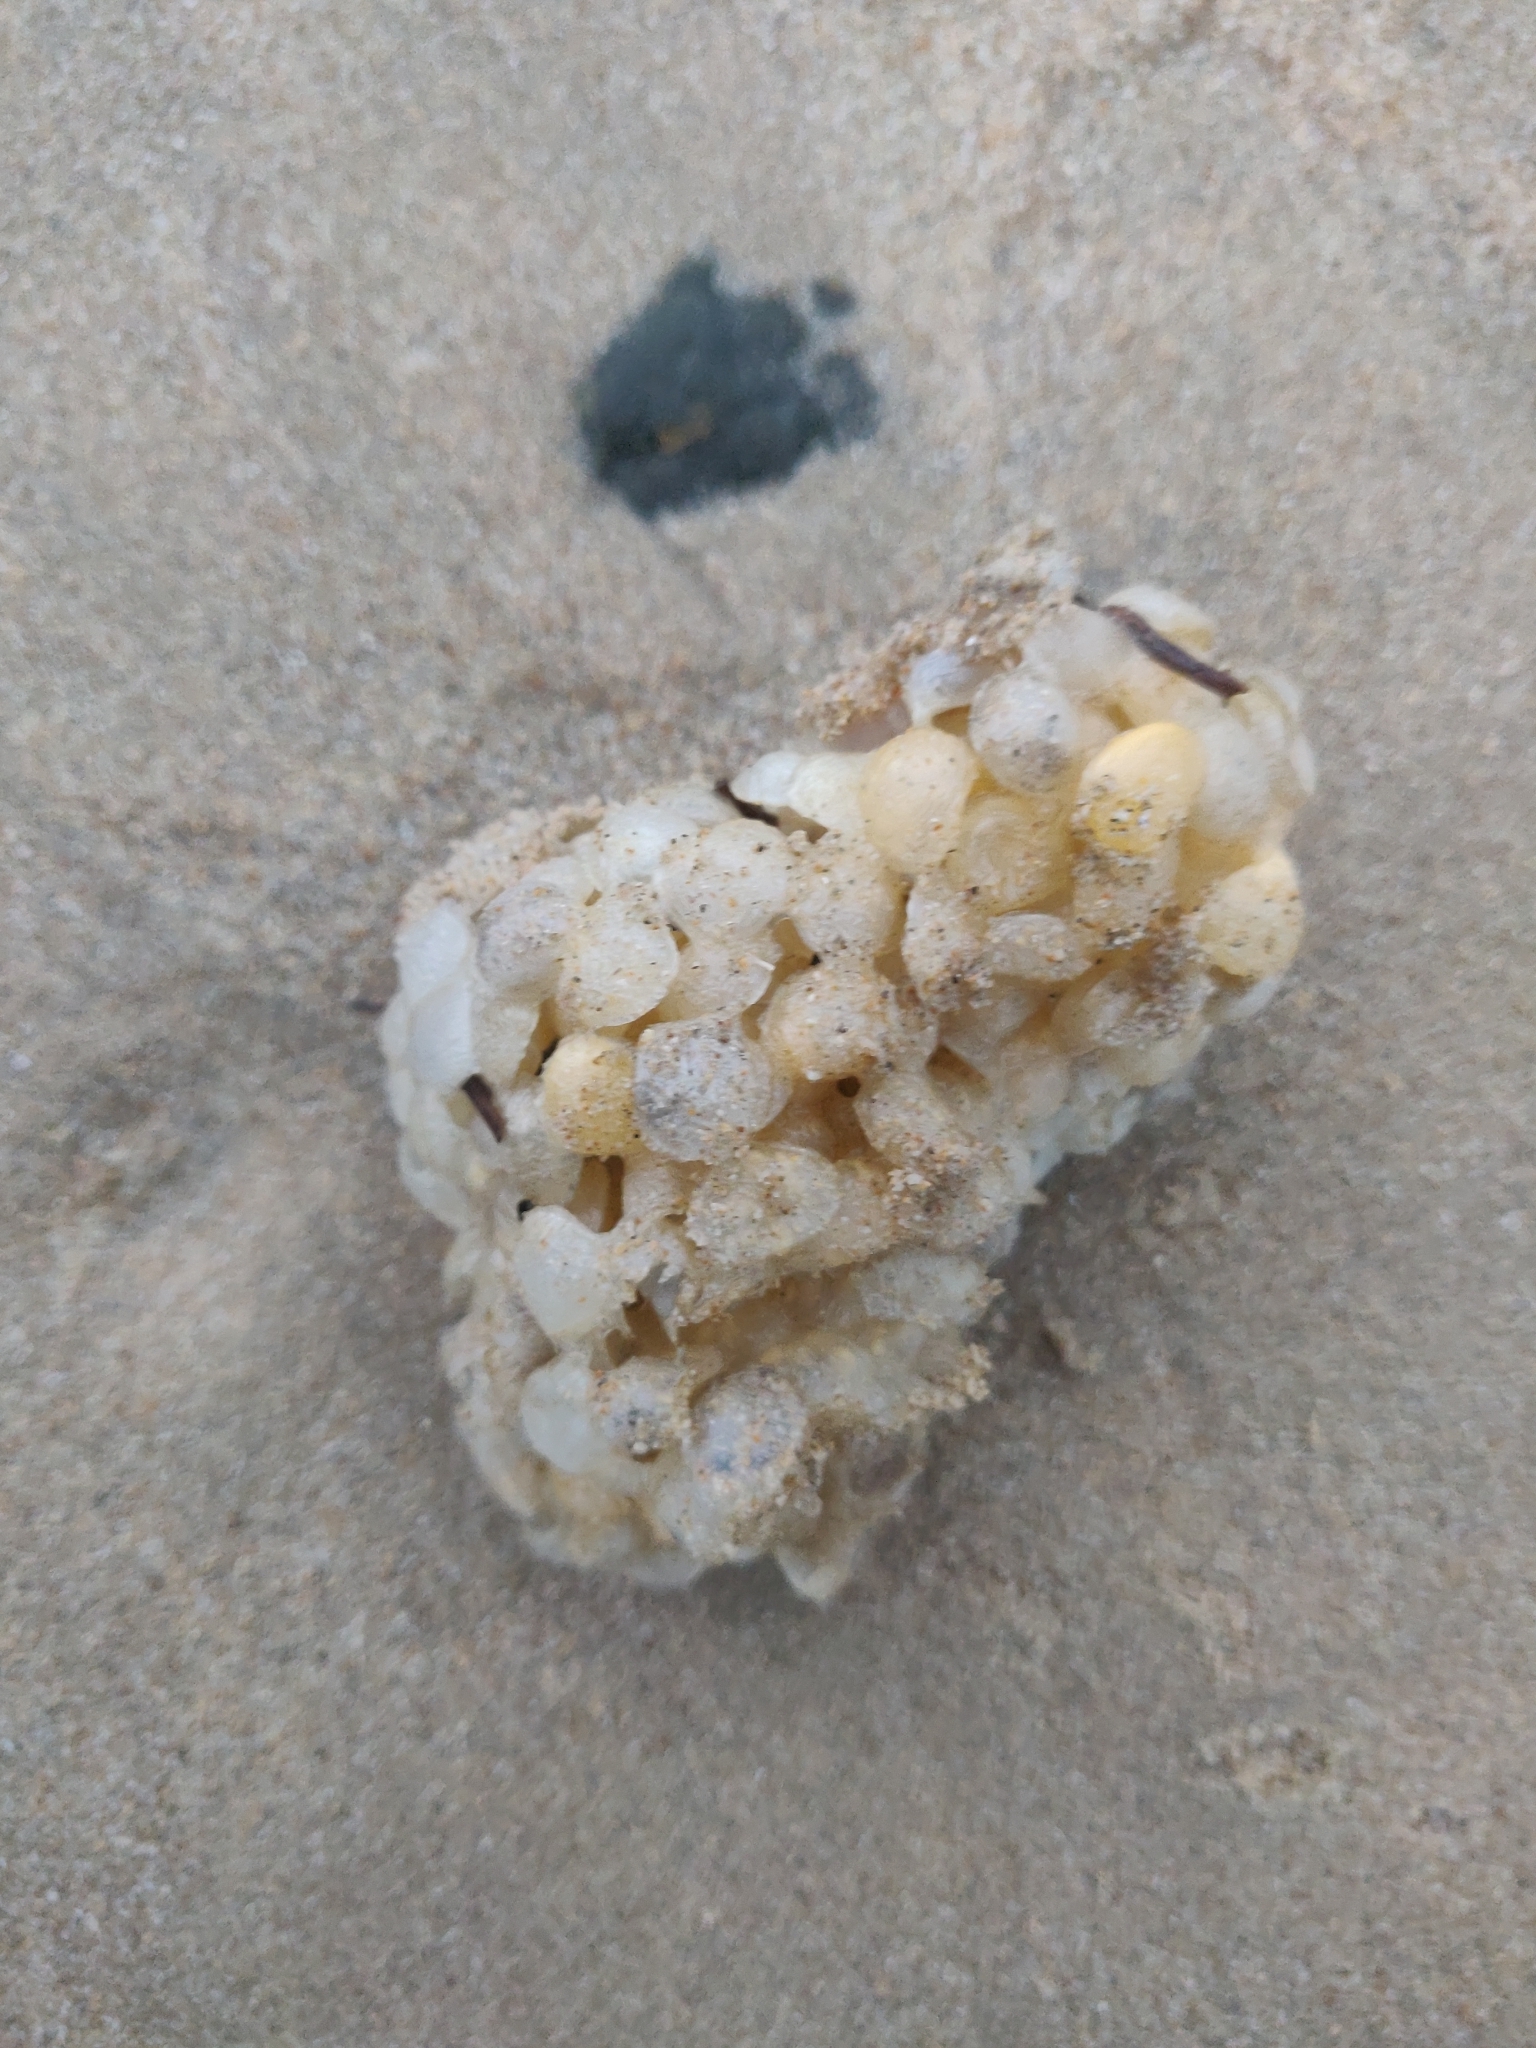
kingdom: Animalia
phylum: Mollusca
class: Gastropoda
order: Neogastropoda
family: Buccinidae
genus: Buccinum
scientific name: Buccinum undatum
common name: Common whelk
